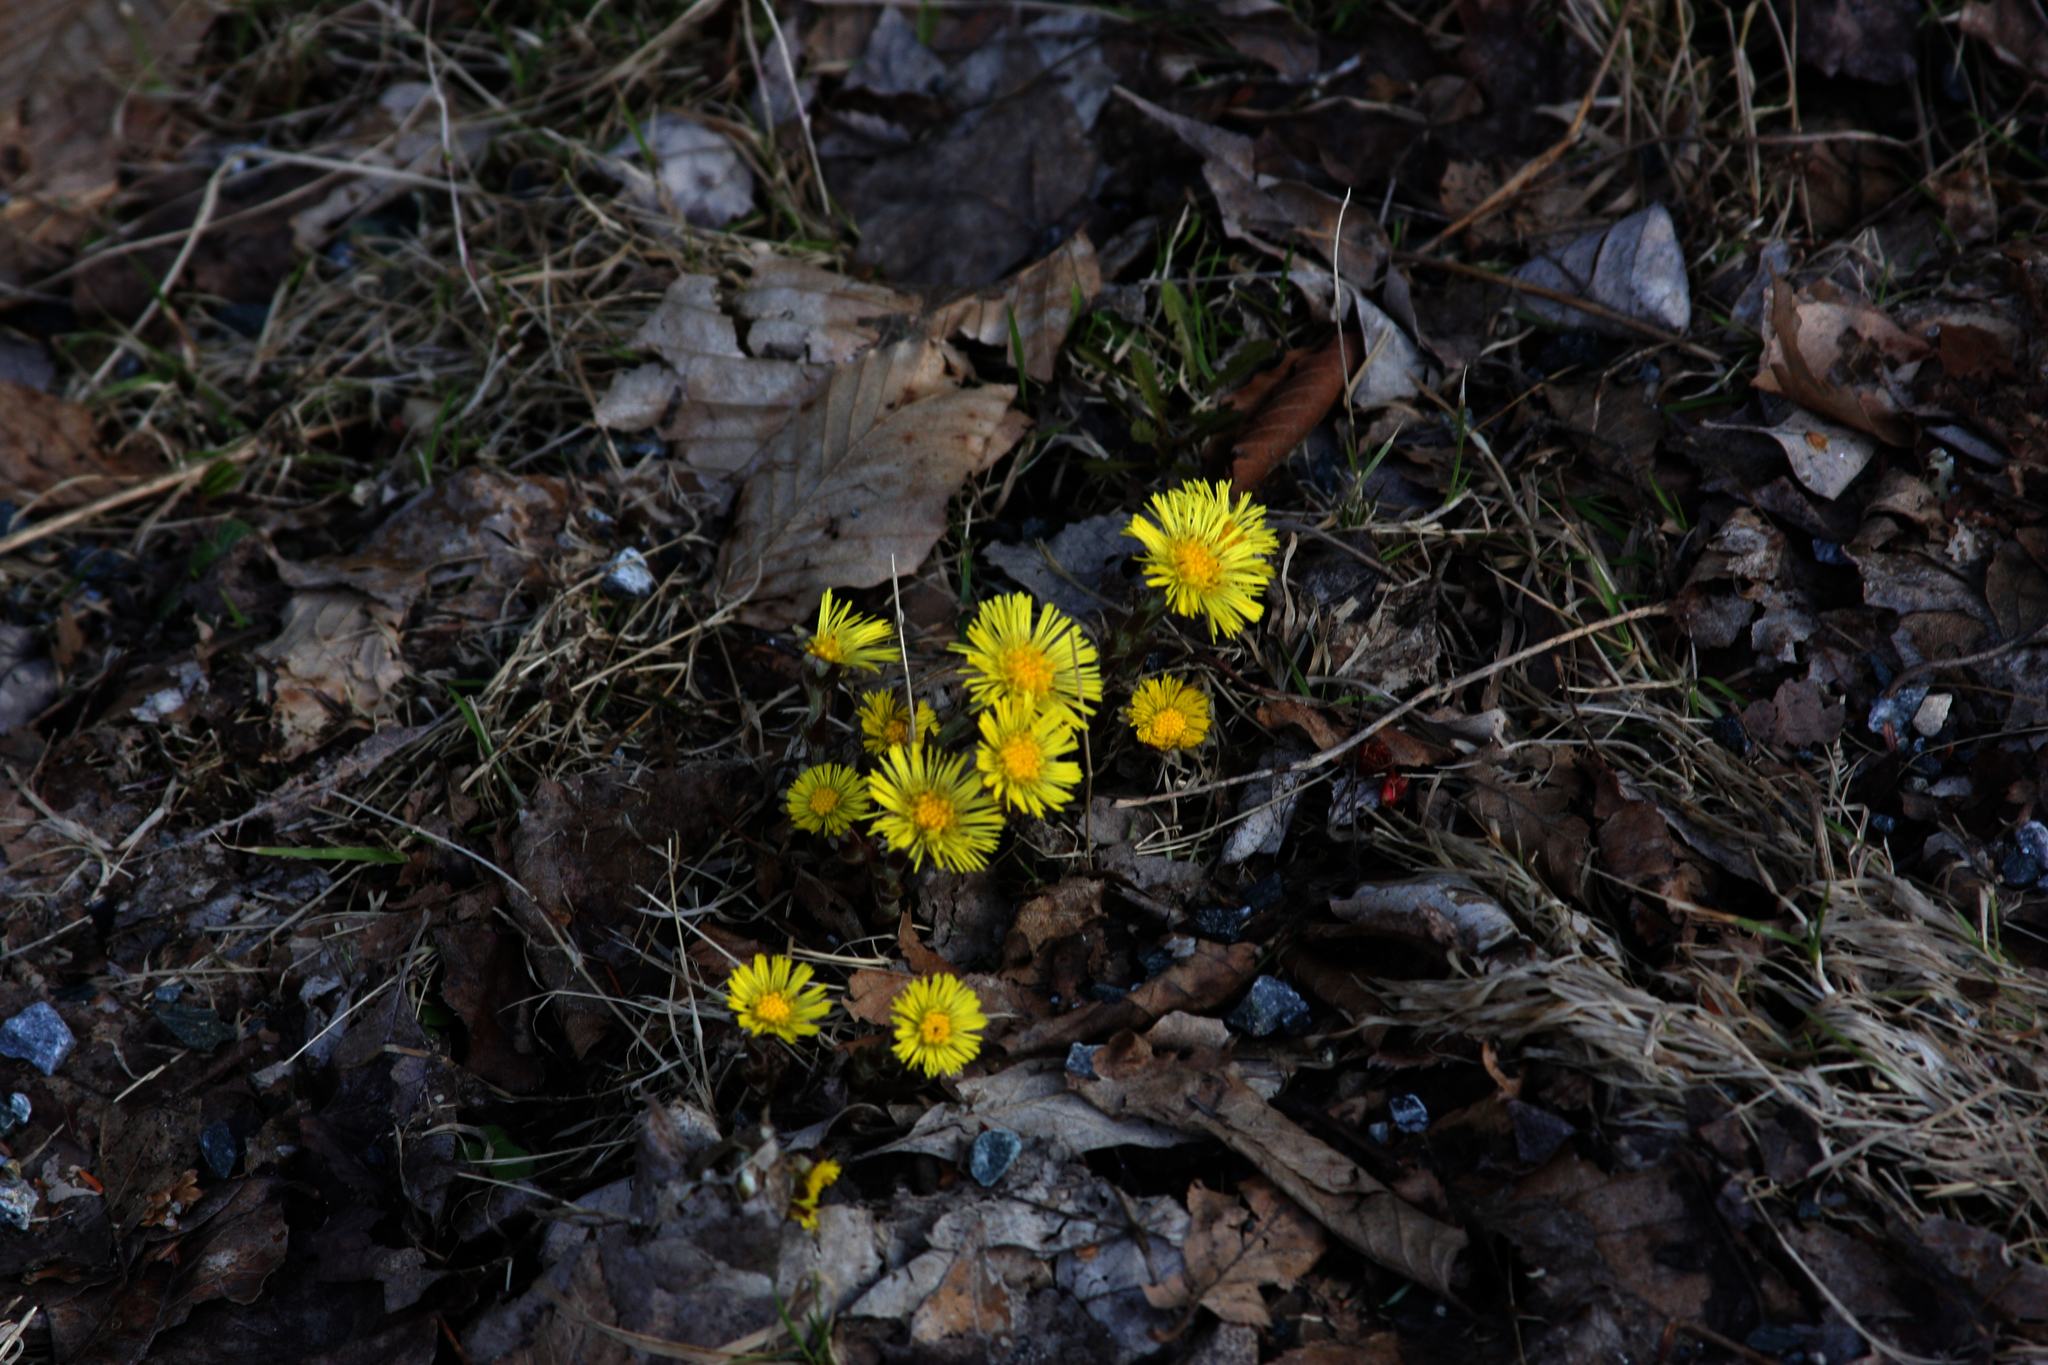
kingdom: Plantae
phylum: Tracheophyta
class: Magnoliopsida
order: Asterales
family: Asteraceae
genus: Tussilago
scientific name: Tussilago farfara
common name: Coltsfoot
